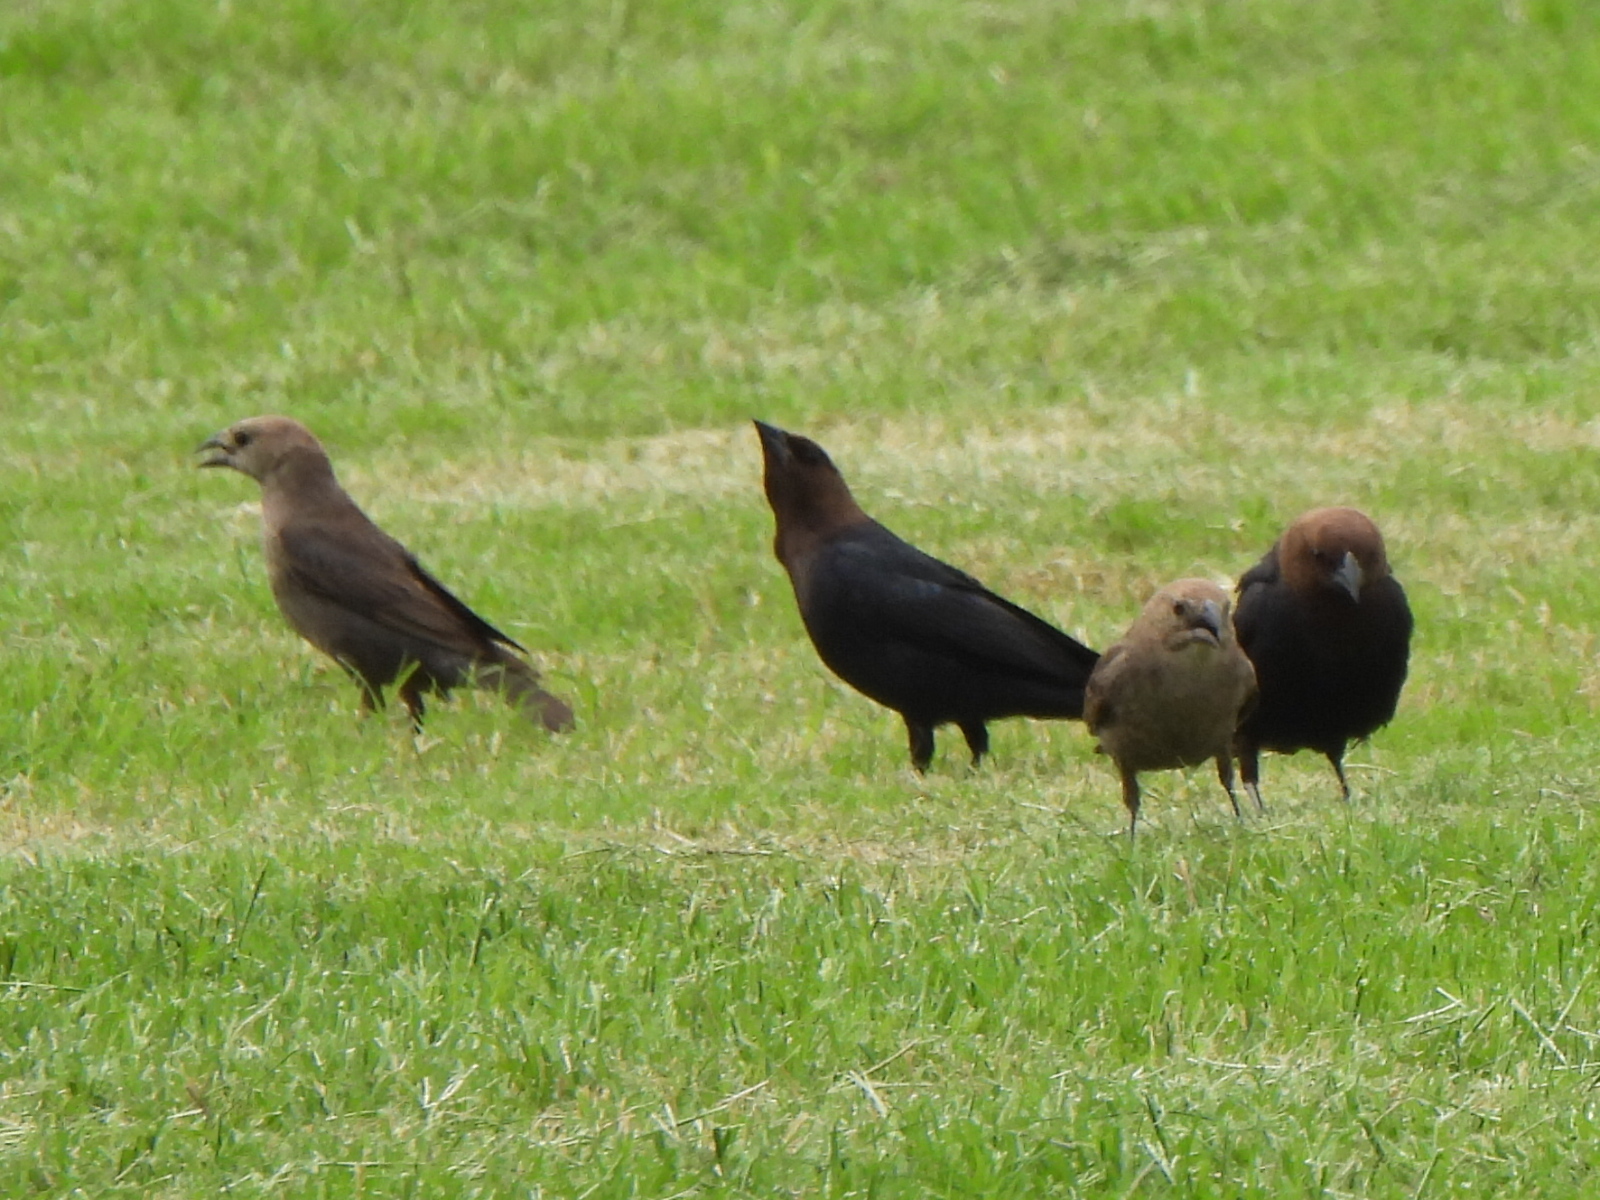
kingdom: Animalia
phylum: Chordata
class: Aves
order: Passeriformes
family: Icteridae
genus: Molothrus
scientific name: Molothrus ater
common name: Brown-headed cowbird
